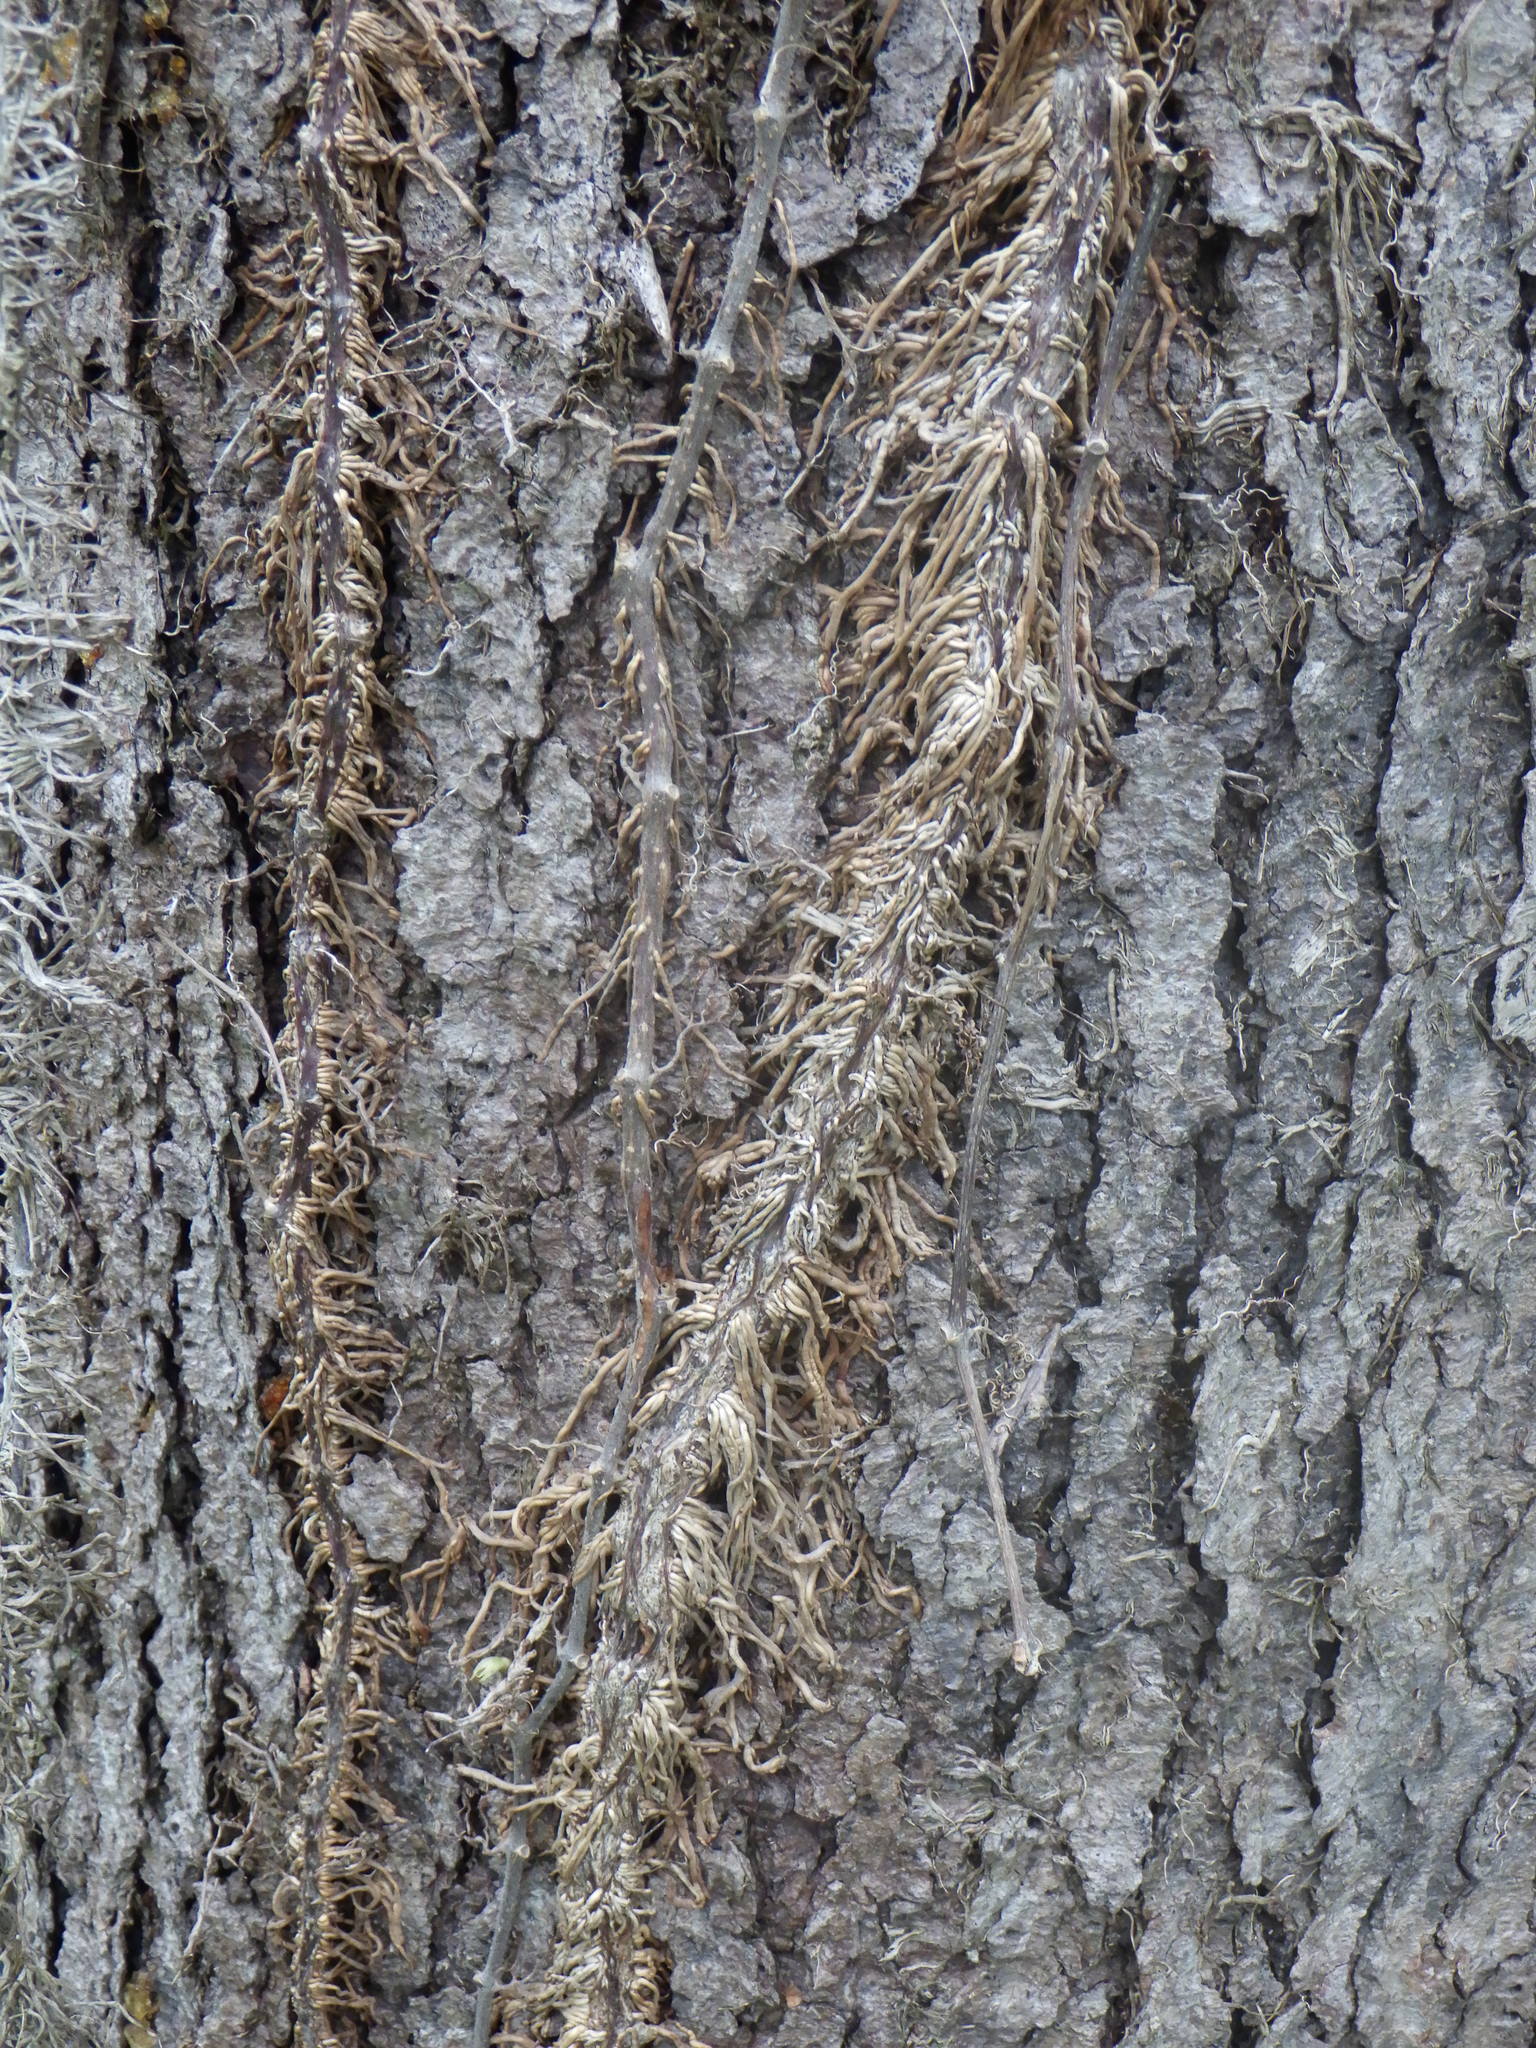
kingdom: Plantae
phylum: Tracheophyta
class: Magnoliopsida
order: Sapindales
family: Anacardiaceae
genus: Toxicodendron
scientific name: Toxicodendron radicans
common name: Poison ivy
